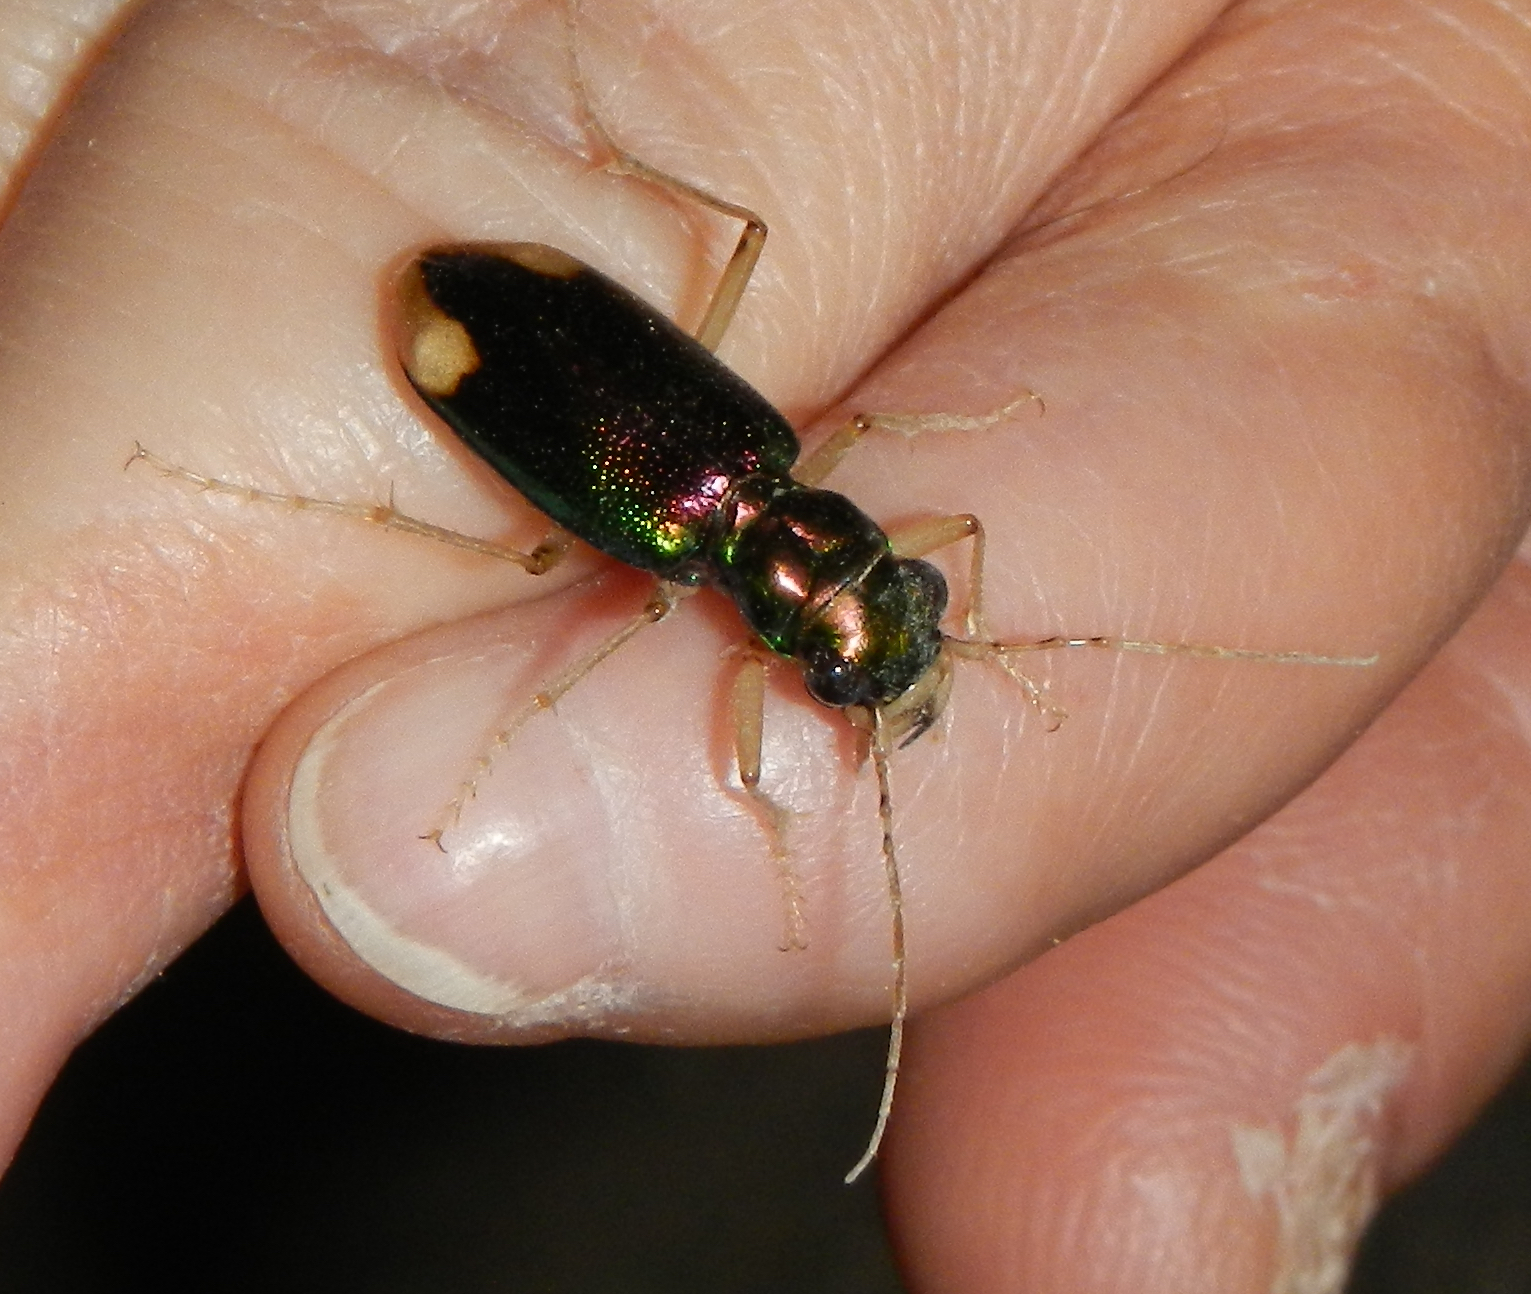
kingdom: Animalia
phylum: Arthropoda
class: Insecta
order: Coleoptera
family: Carabidae
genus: Tetracha
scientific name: Tetracha carolina
